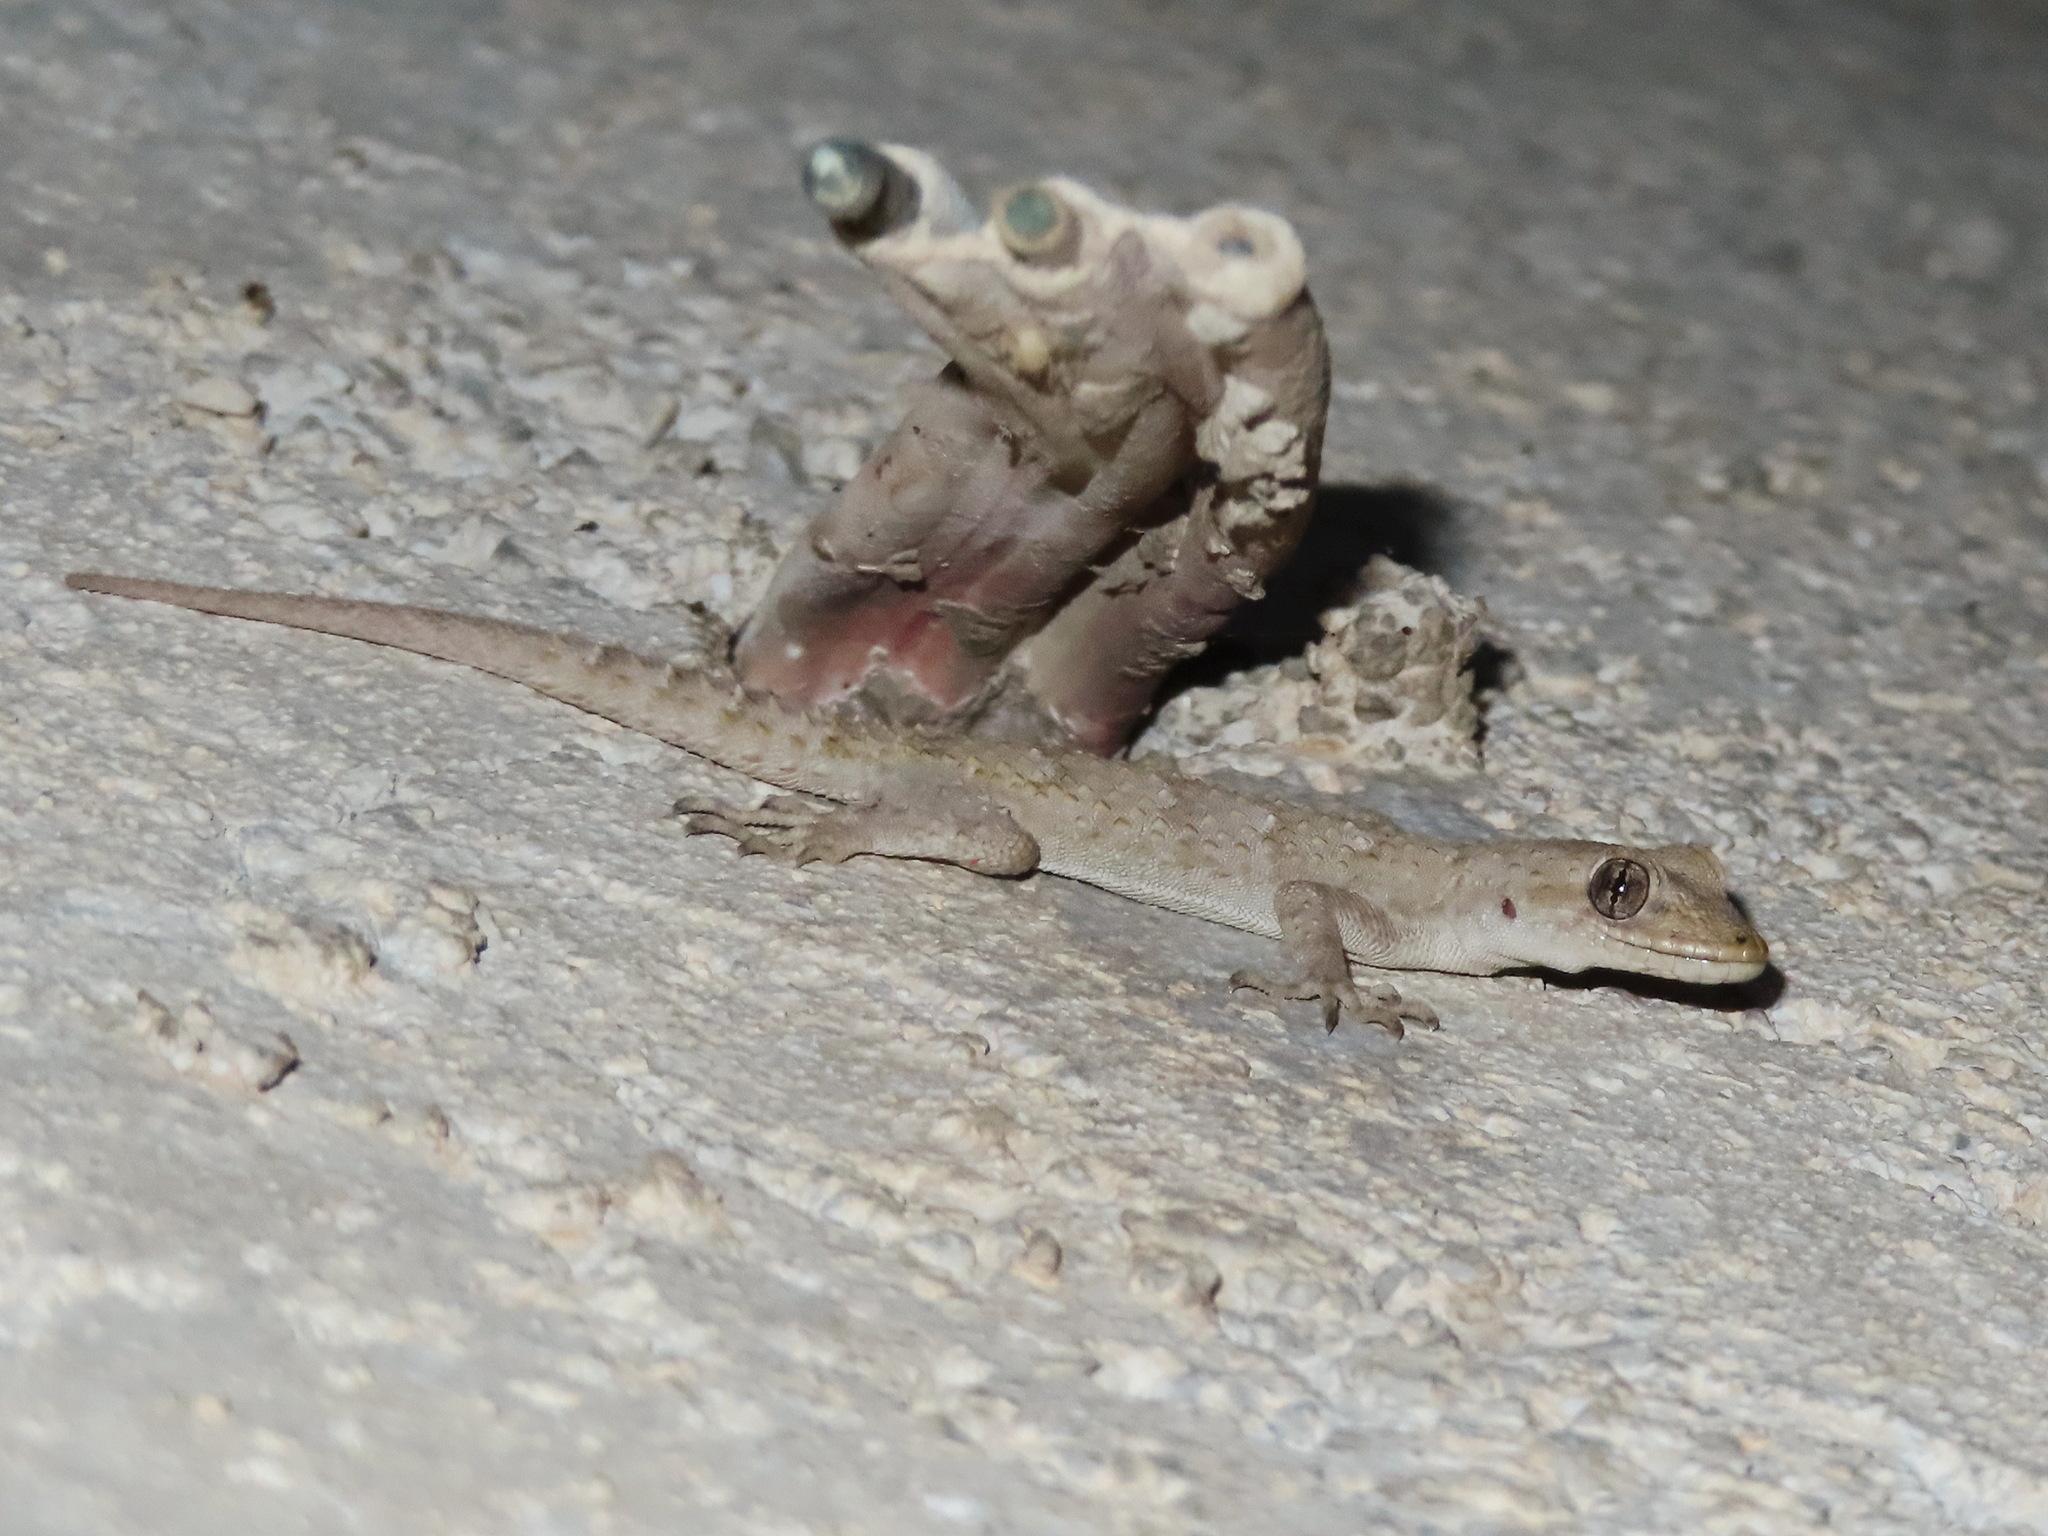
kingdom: Animalia
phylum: Chordata
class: Squamata
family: Gekkonidae
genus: Mediodactylus
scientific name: Mediodactylus kotschyi
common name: Kotschy's gecko
